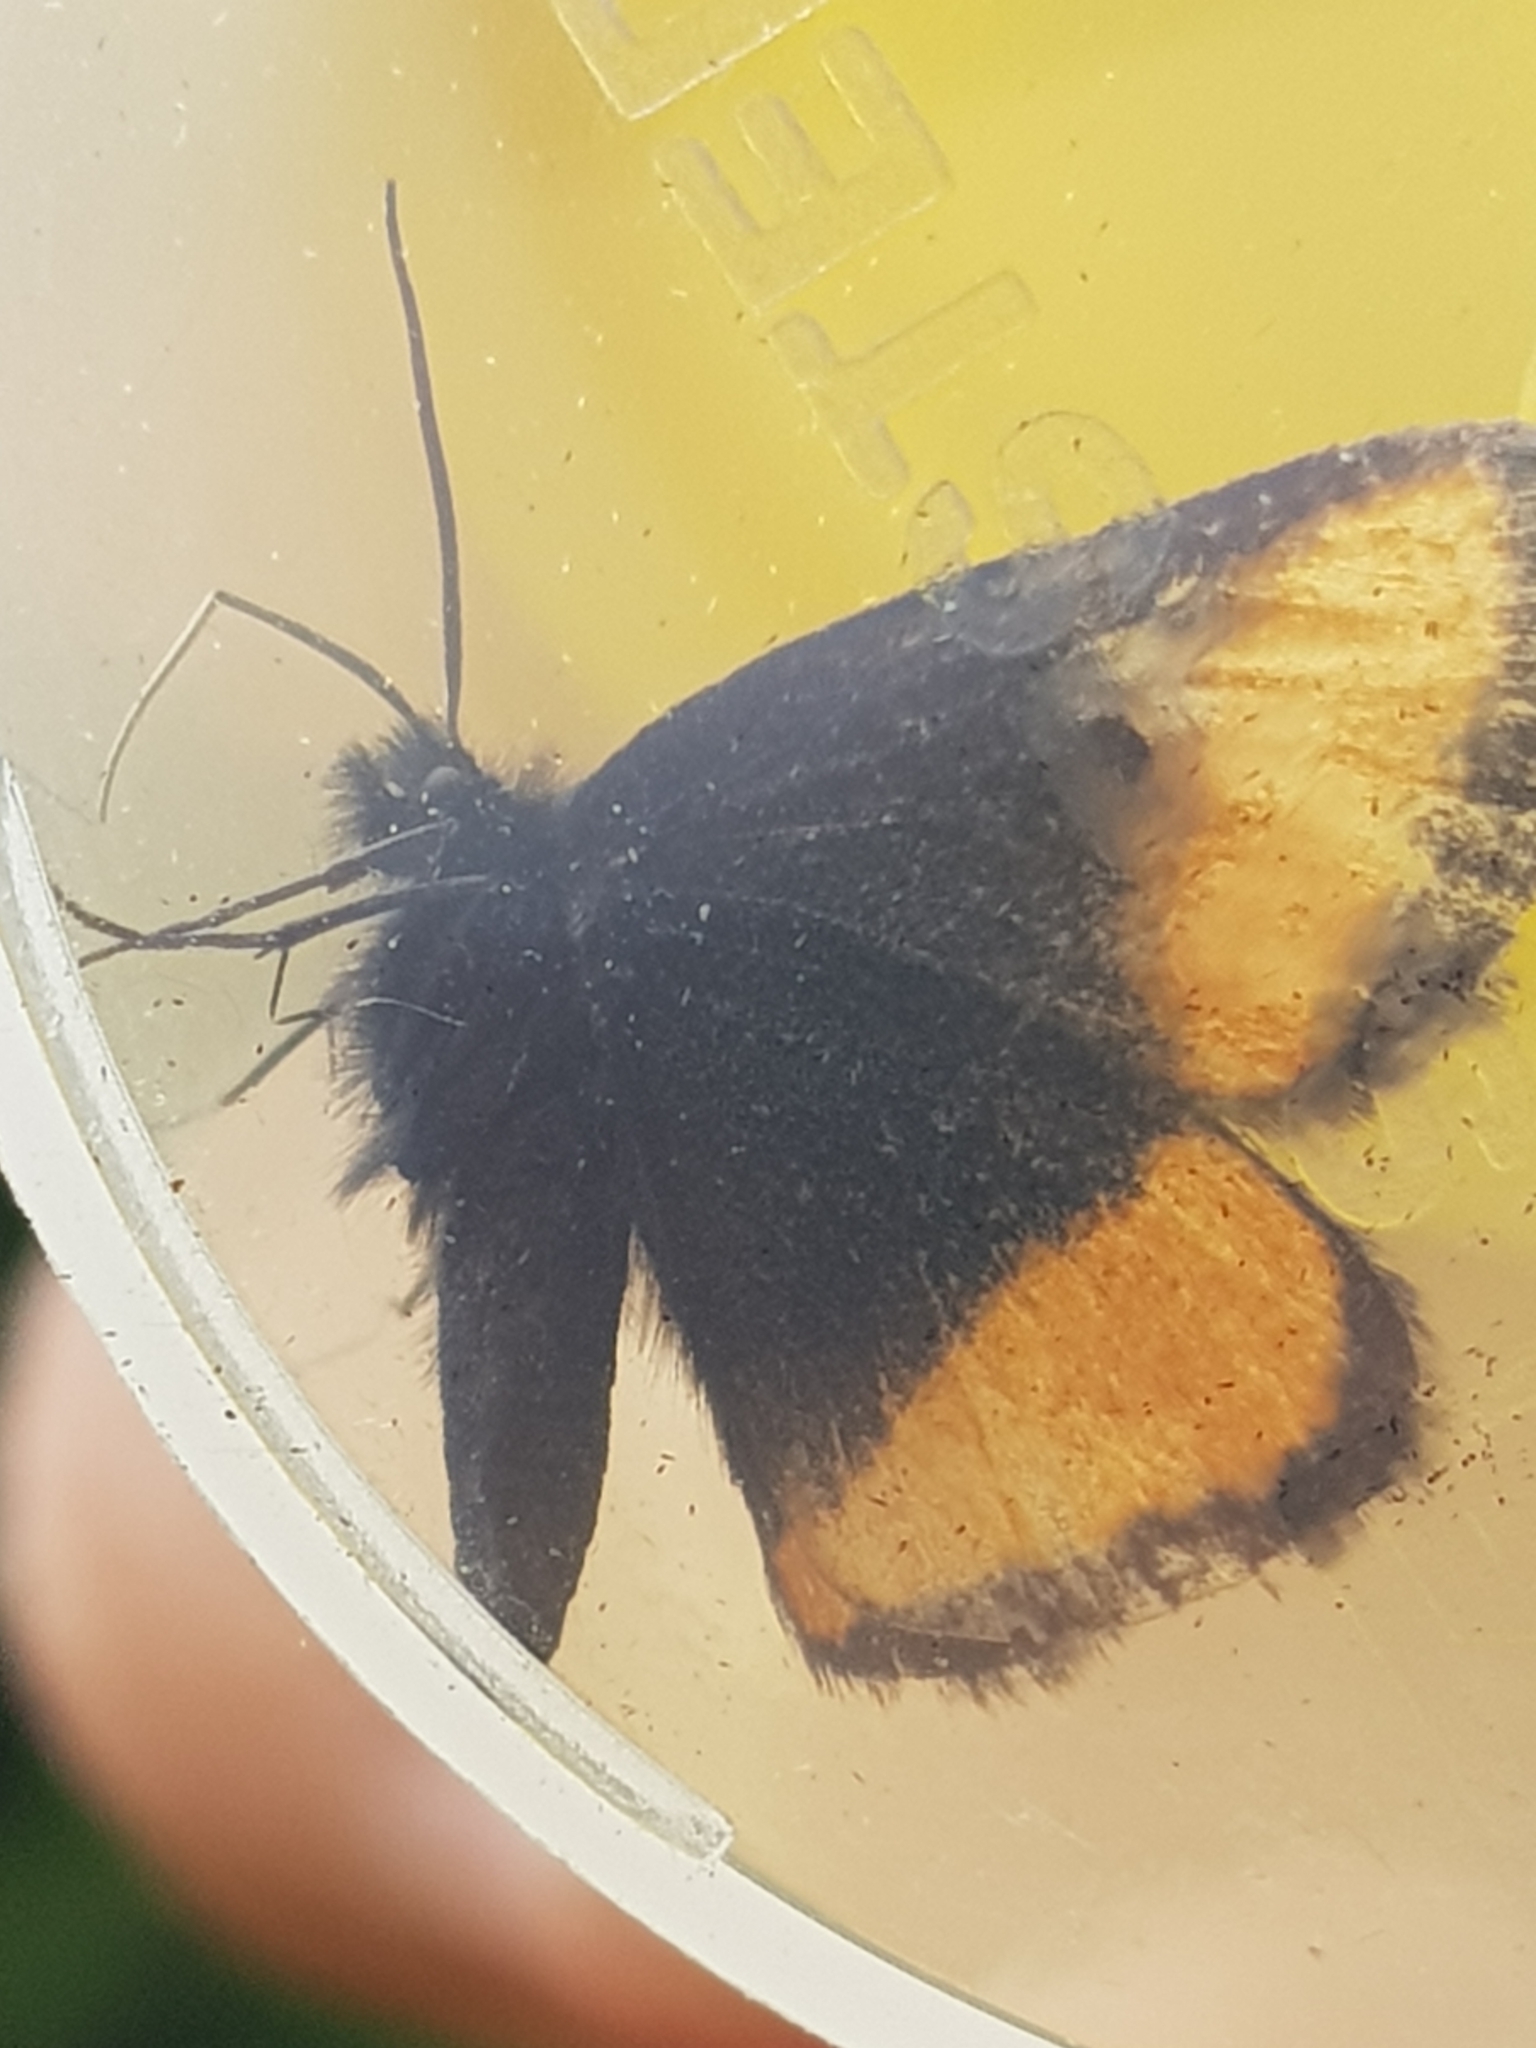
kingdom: Animalia
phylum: Arthropoda
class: Insecta
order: Lepidoptera
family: Geometridae
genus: Psodos
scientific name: Psodos quadrifaria
